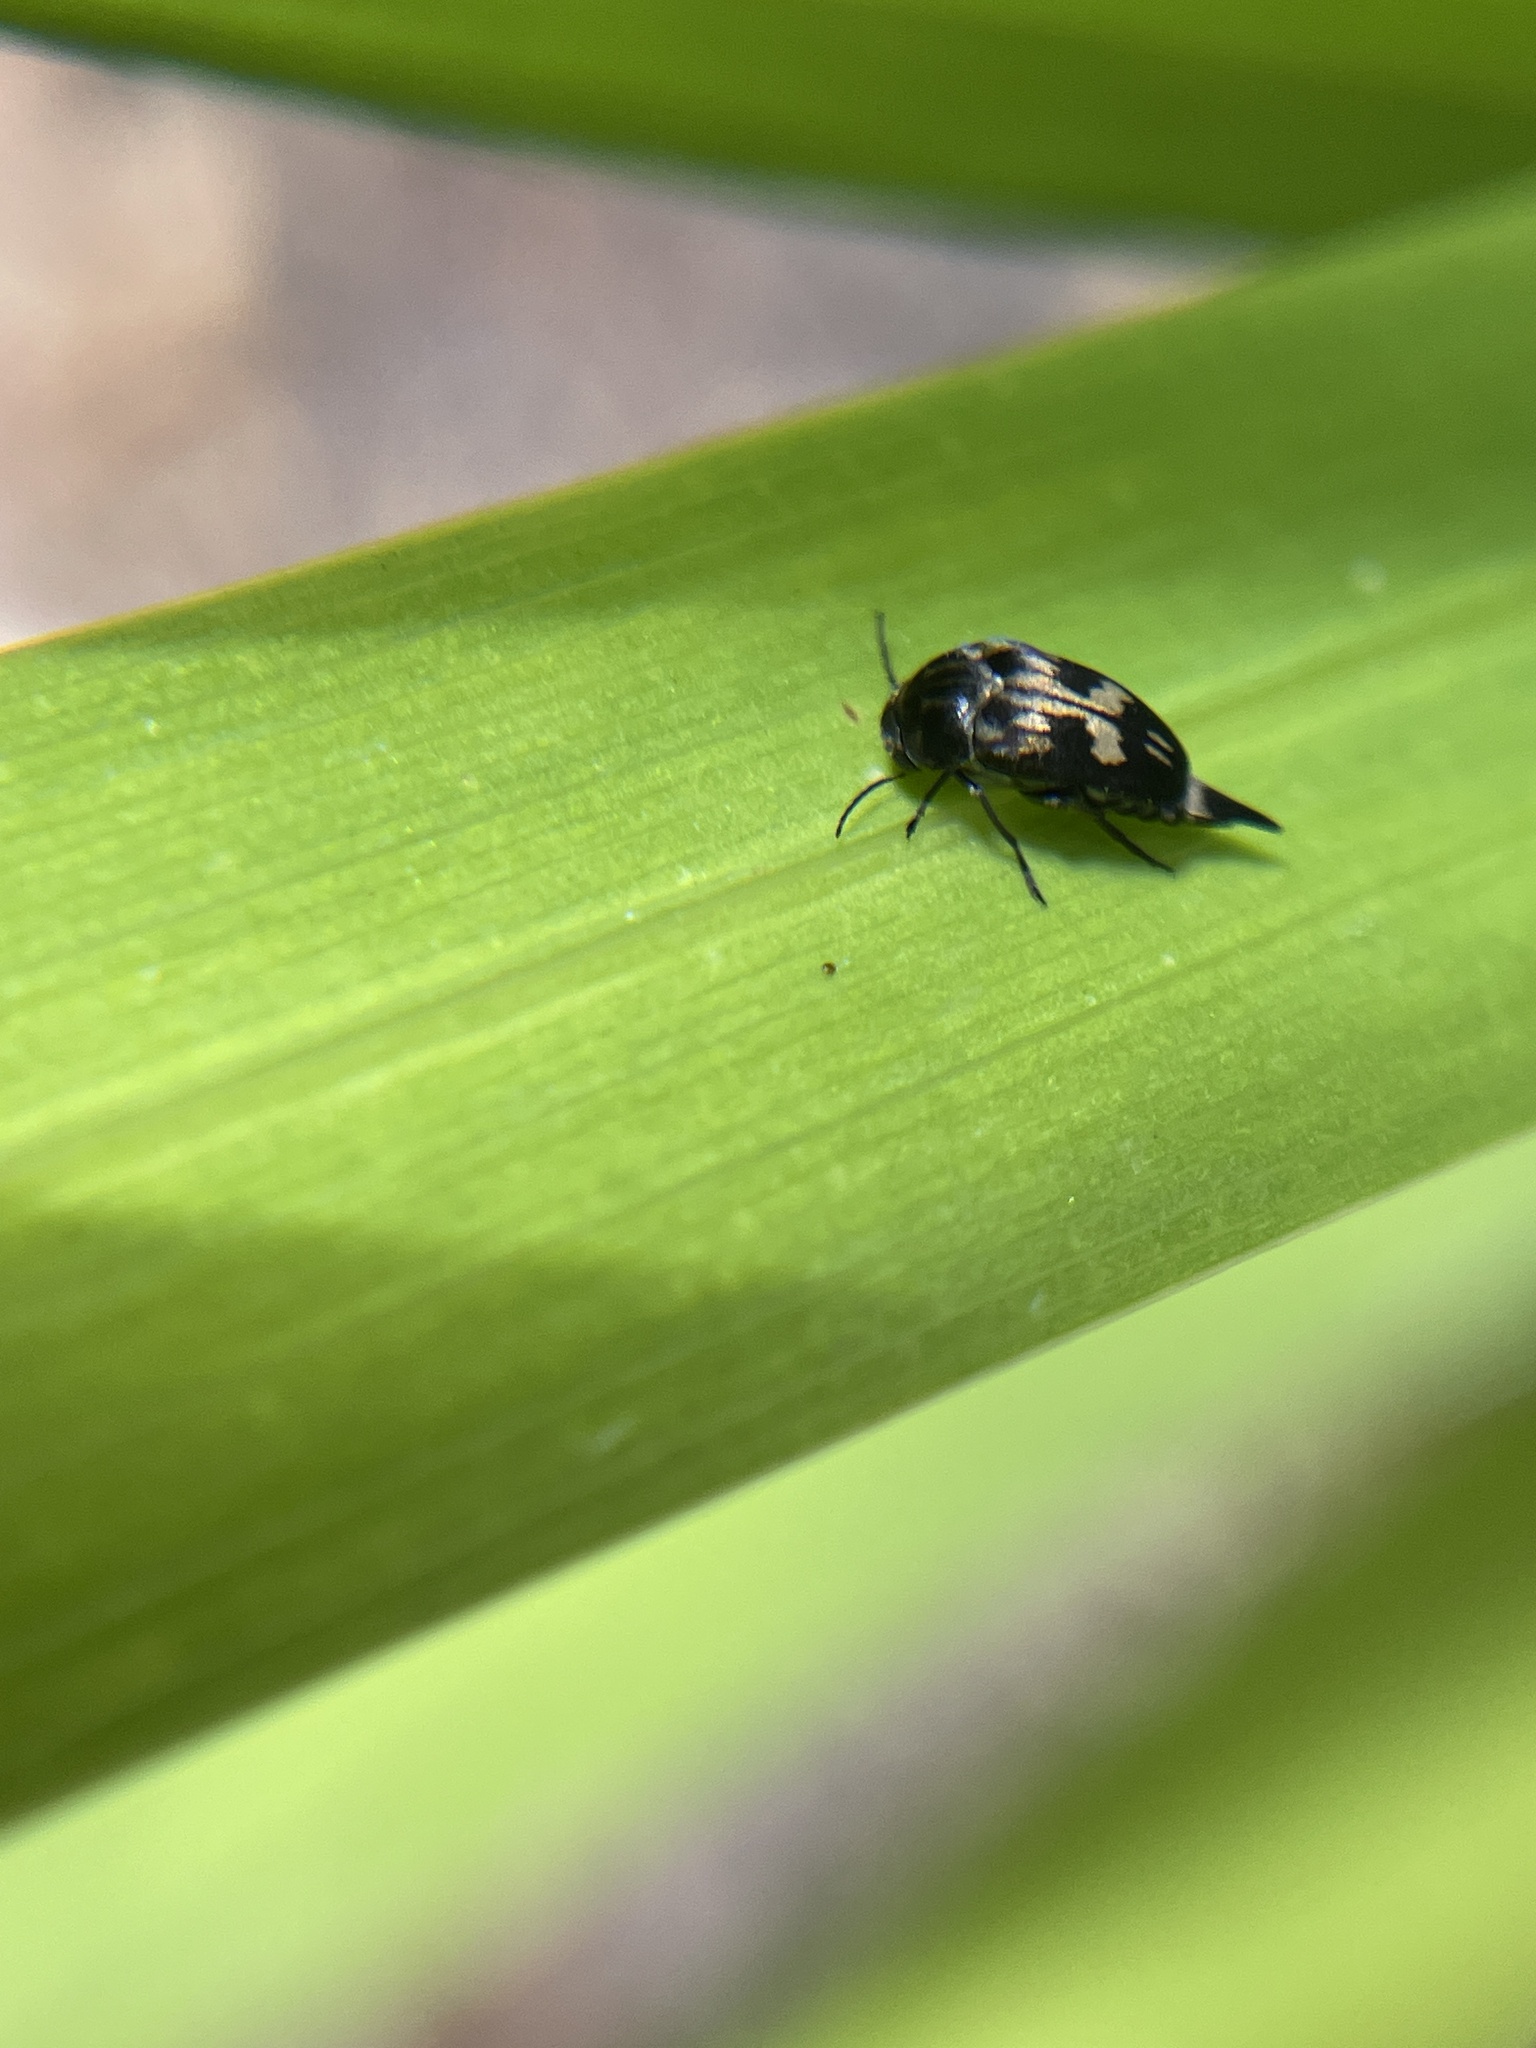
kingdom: Animalia
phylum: Arthropoda
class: Insecta
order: Coleoptera
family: Mordellidae
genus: Zeamordella
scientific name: Zeamordella monacha
